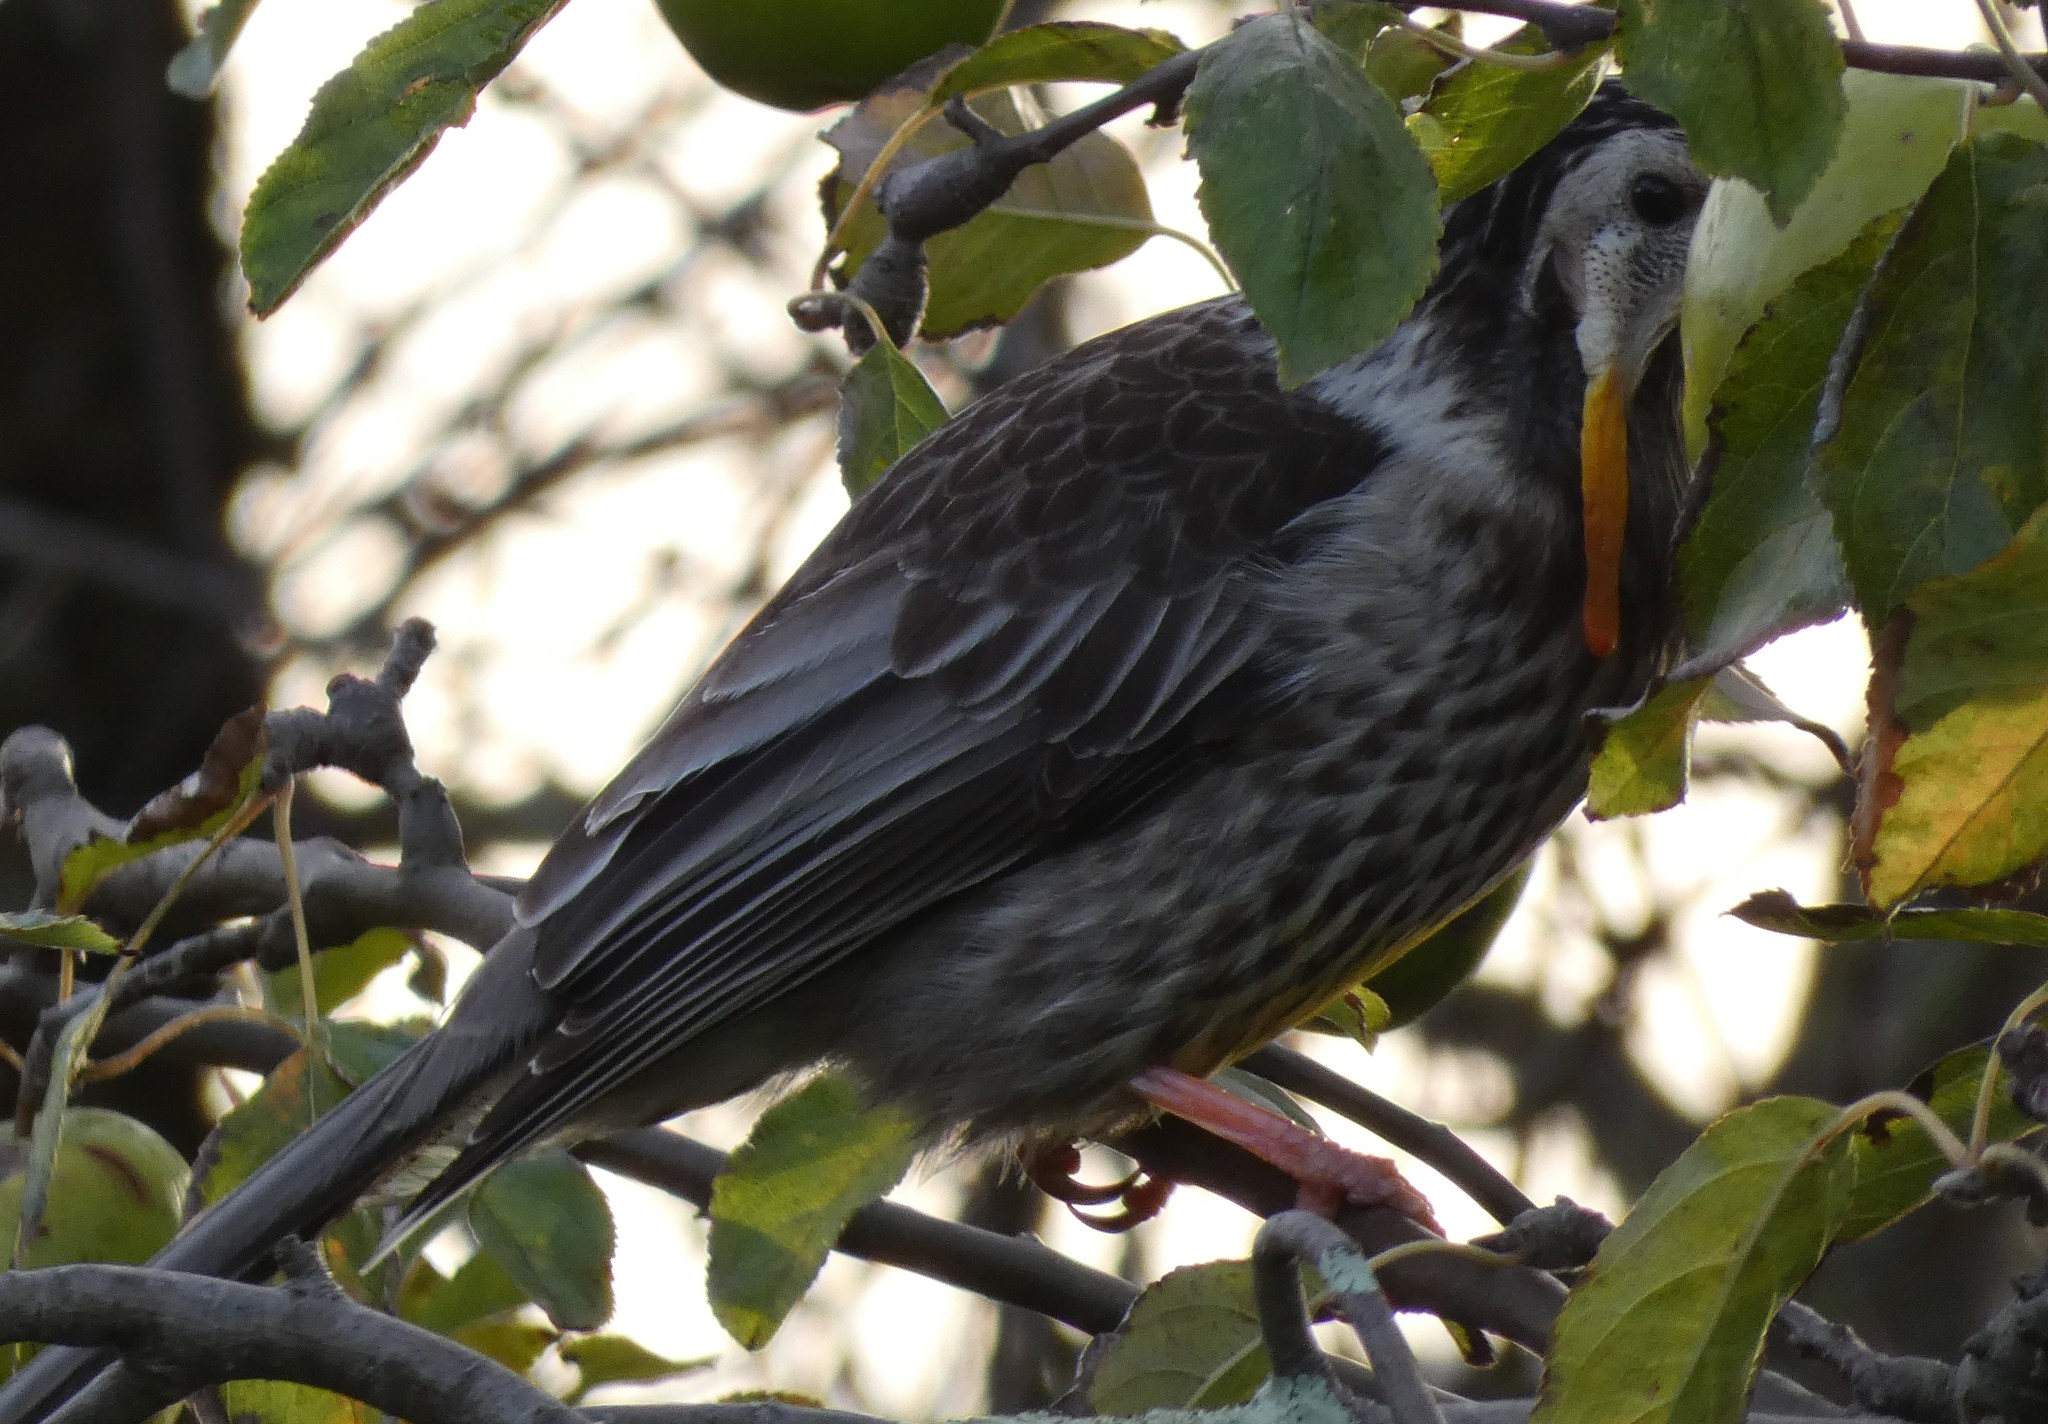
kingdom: Animalia
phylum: Chordata
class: Aves
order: Passeriformes
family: Meliphagidae
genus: Anthochaera
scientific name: Anthochaera paradoxa
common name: Yellow wattlebird
